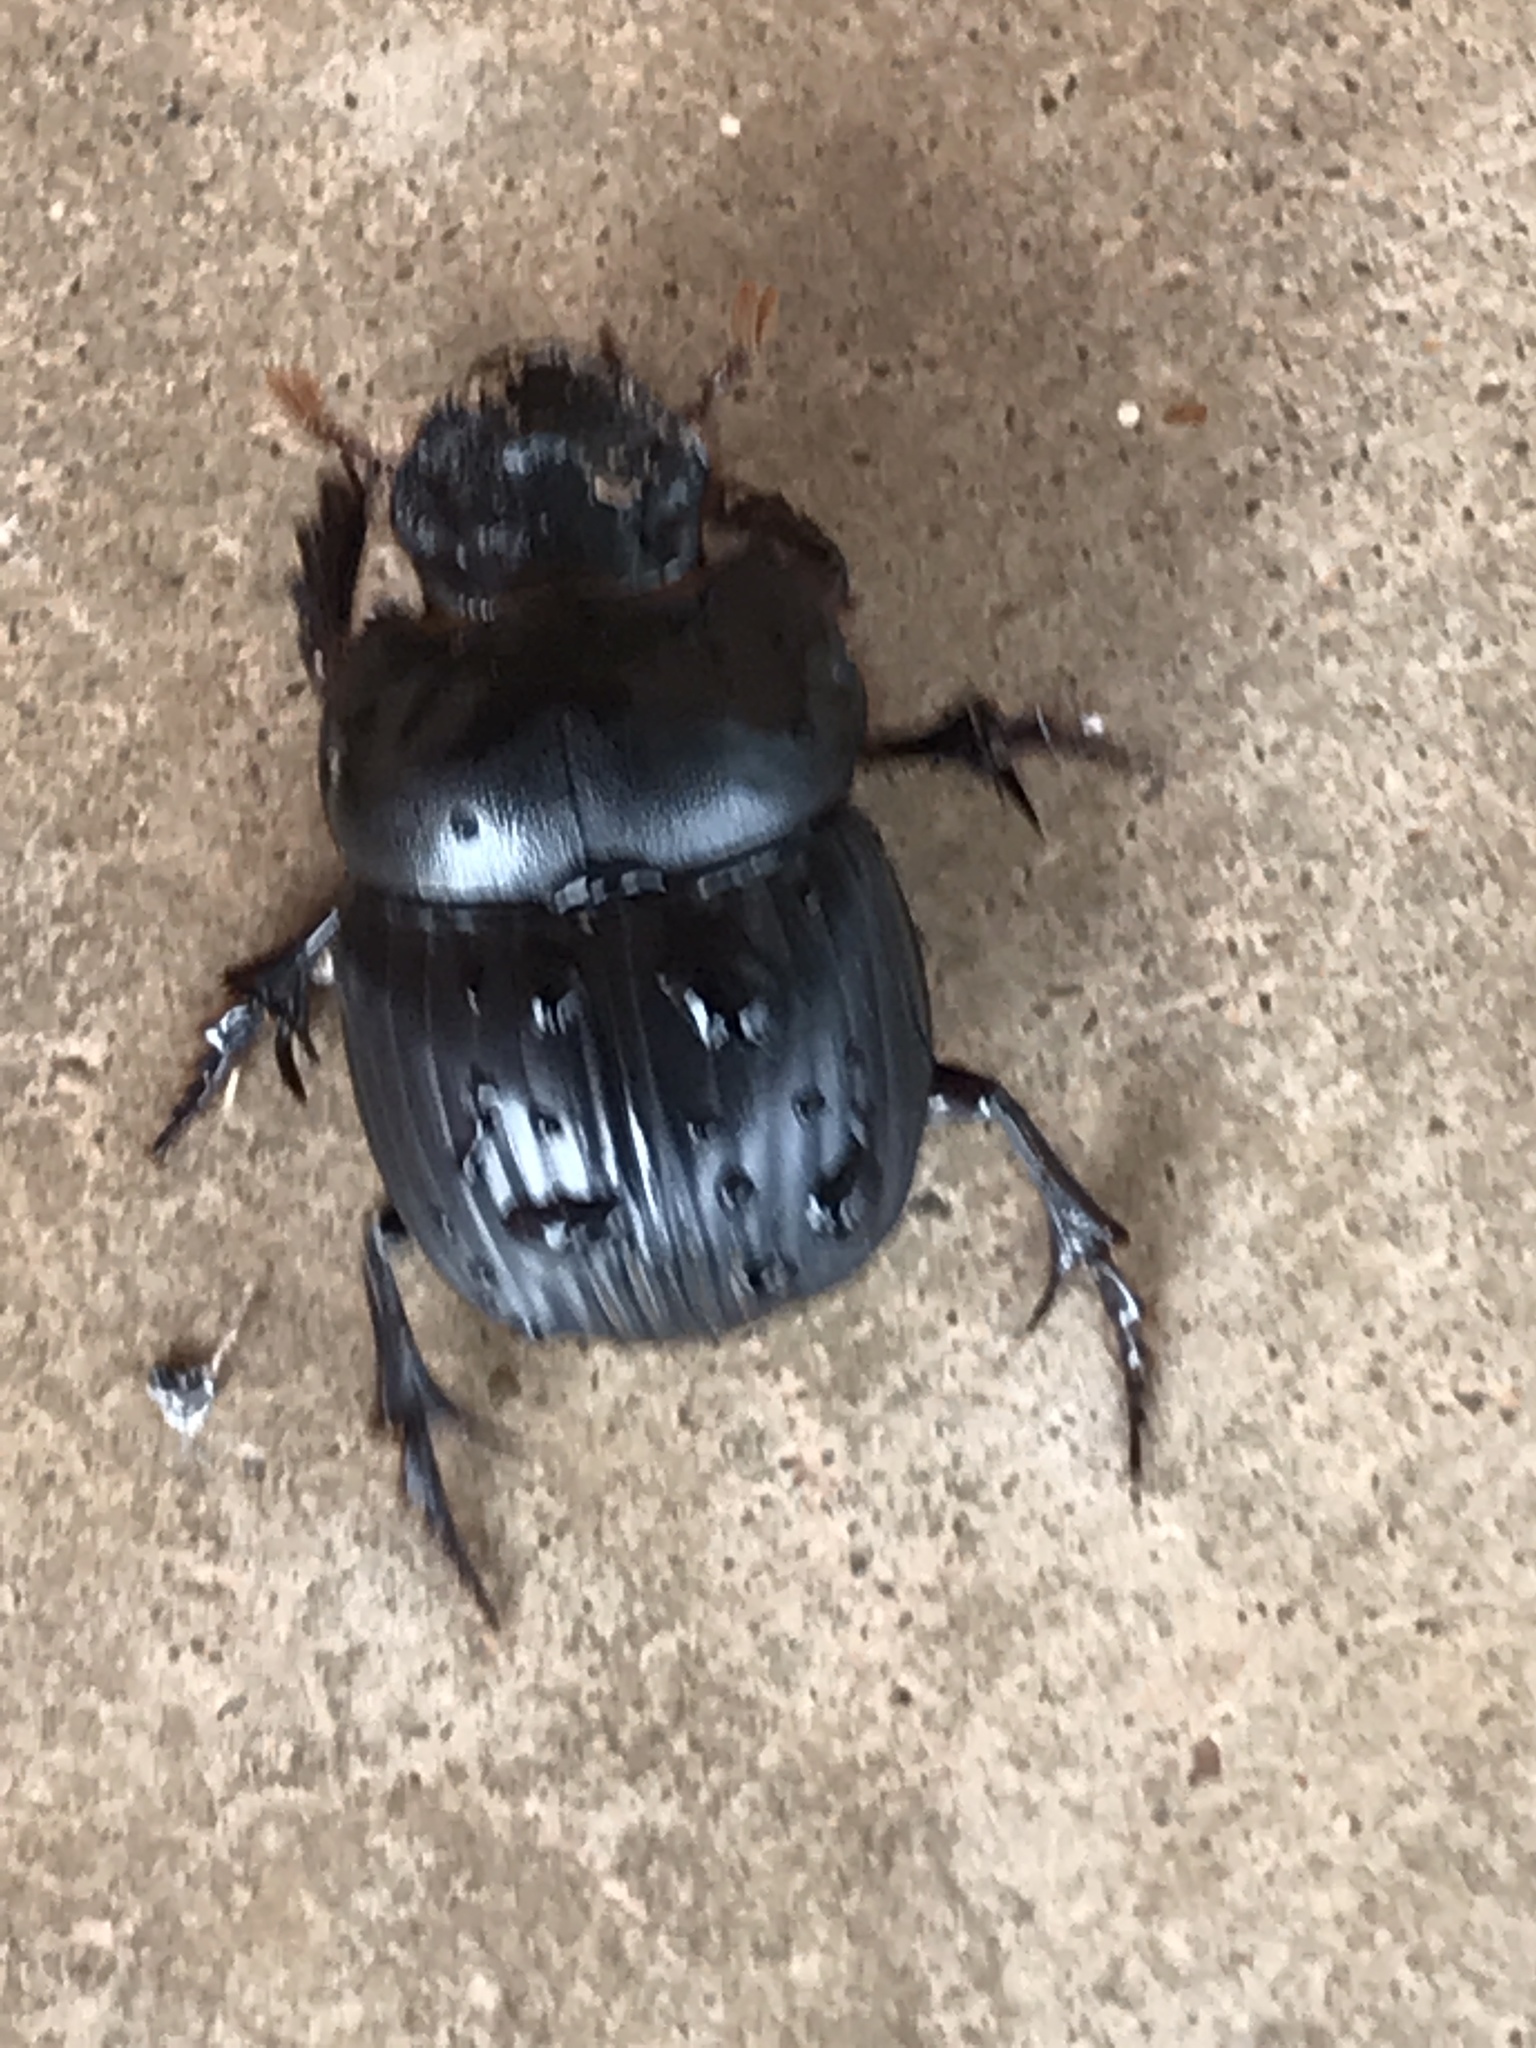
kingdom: Animalia
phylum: Arthropoda
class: Insecta
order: Coleoptera
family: Scarabaeidae
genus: Dichotomius
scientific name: Dichotomius carolinus
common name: Carolina copris
